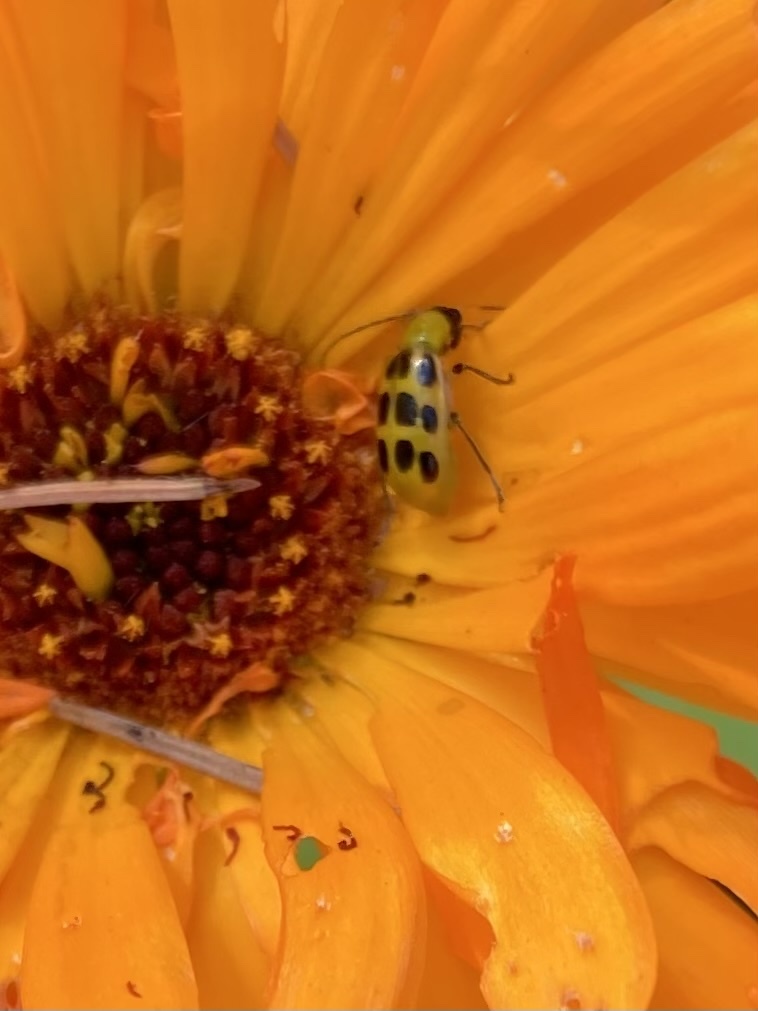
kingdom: Animalia
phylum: Arthropoda
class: Insecta
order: Coleoptera
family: Chrysomelidae
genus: Diabrotica
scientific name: Diabrotica undecimpunctata
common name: Spotted cucumber beetle
